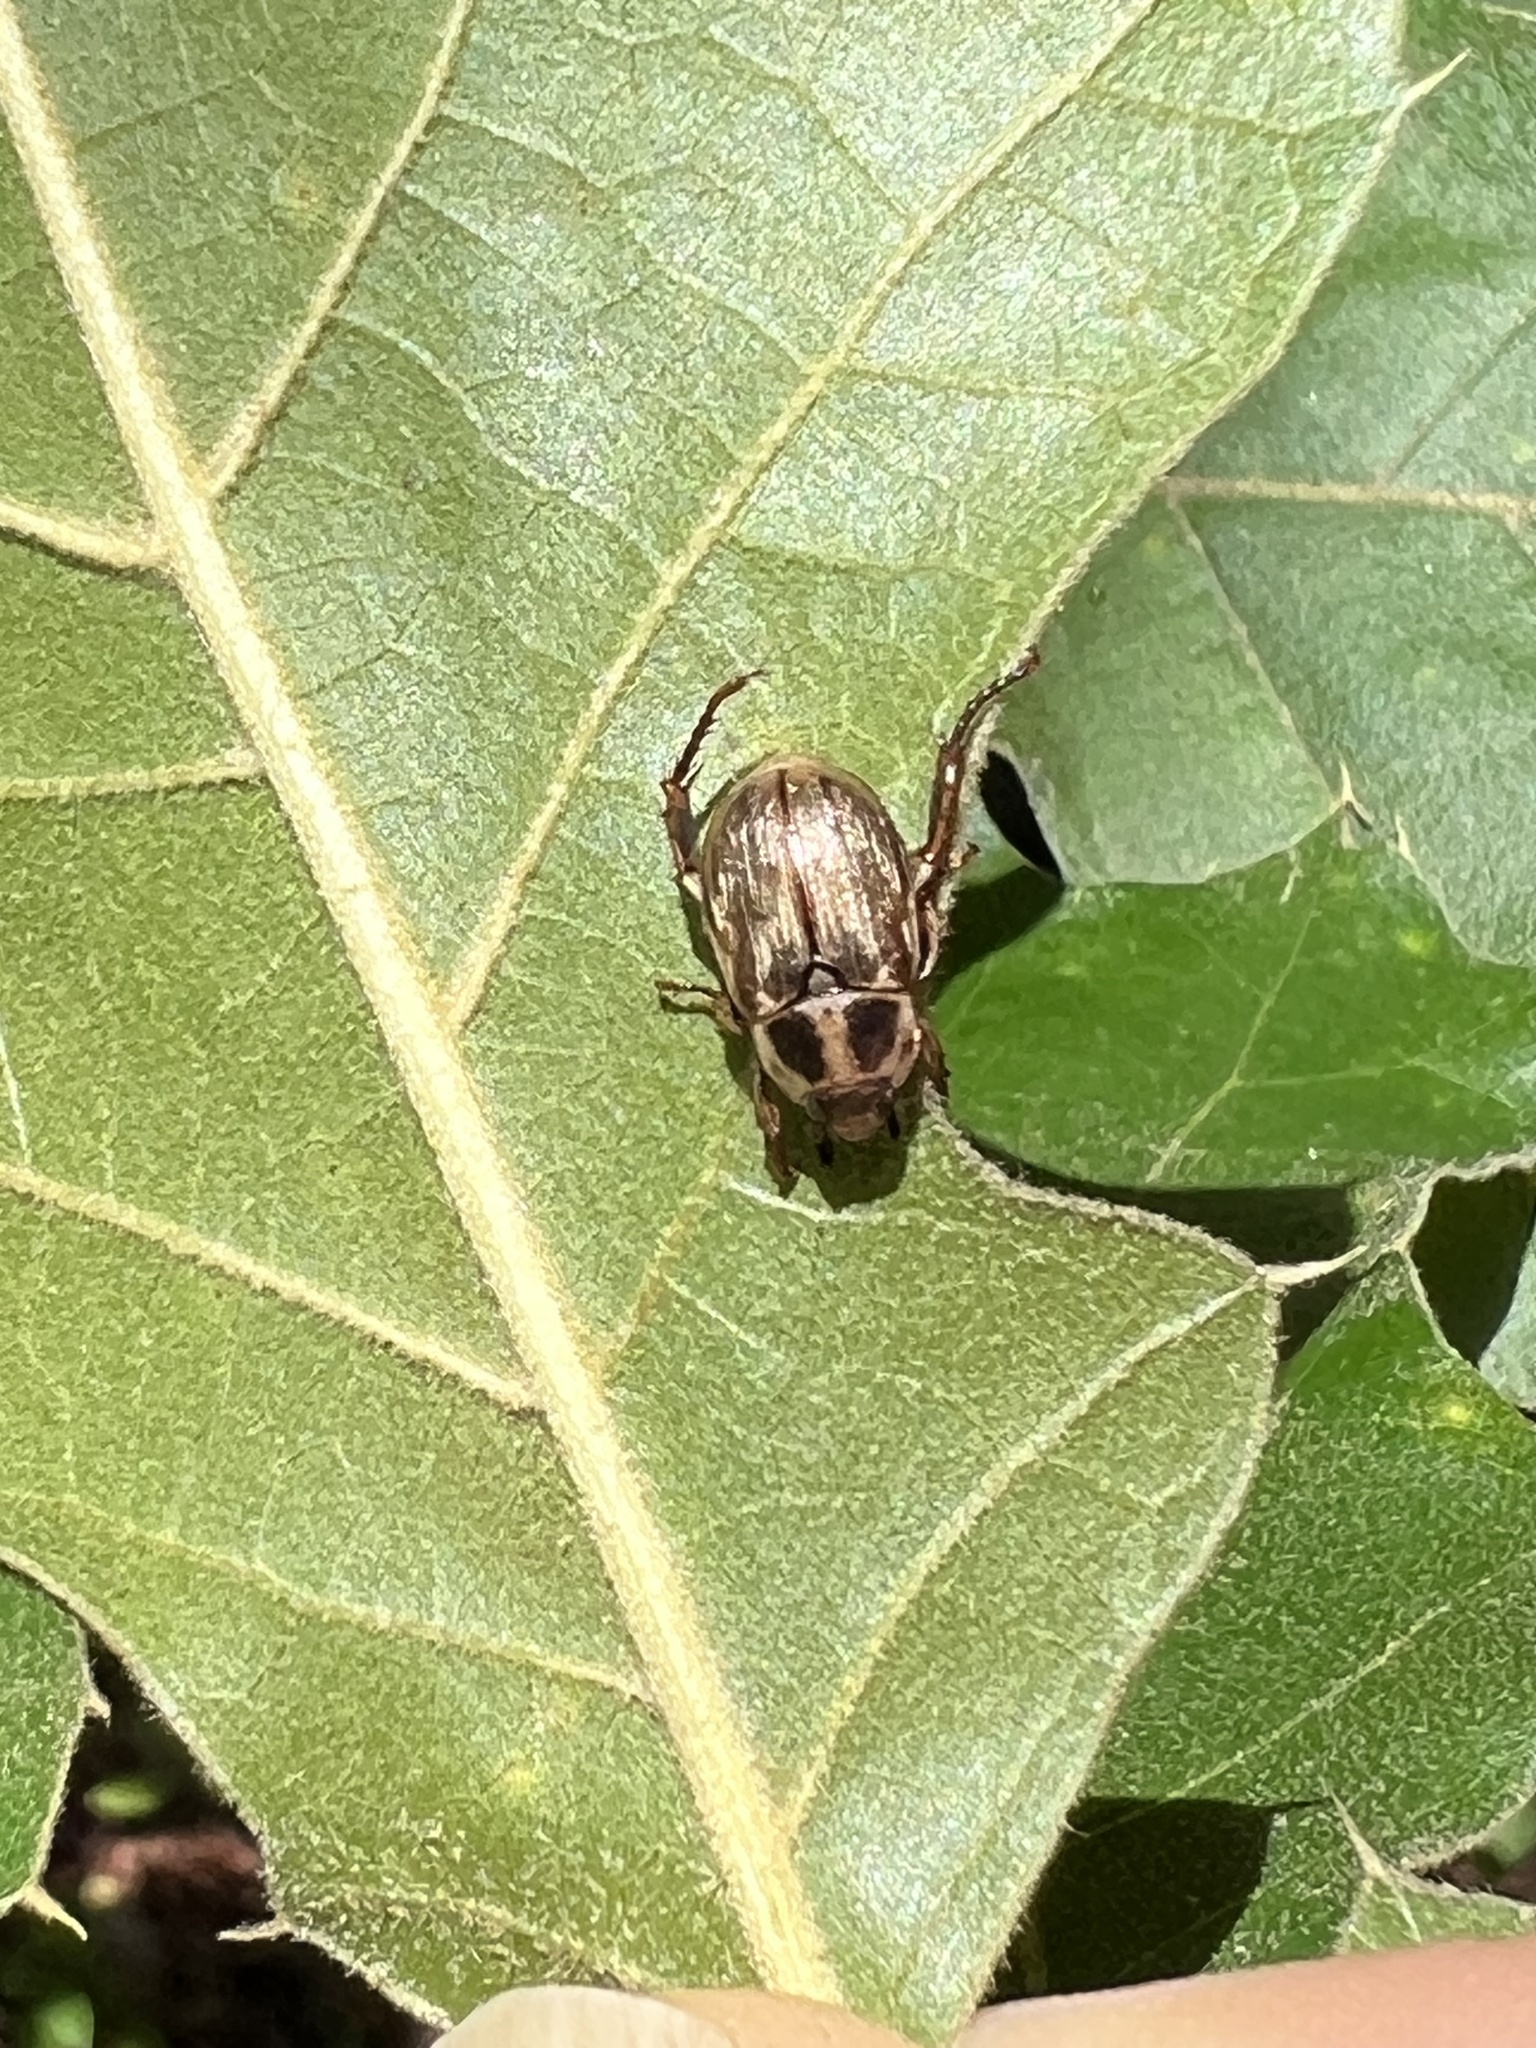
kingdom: Animalia
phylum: Arthropoda
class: Insecta
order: Coleoptera
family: Scarabaeidae
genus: Exomala
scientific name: Exomala orientalis
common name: Oriental beetle
